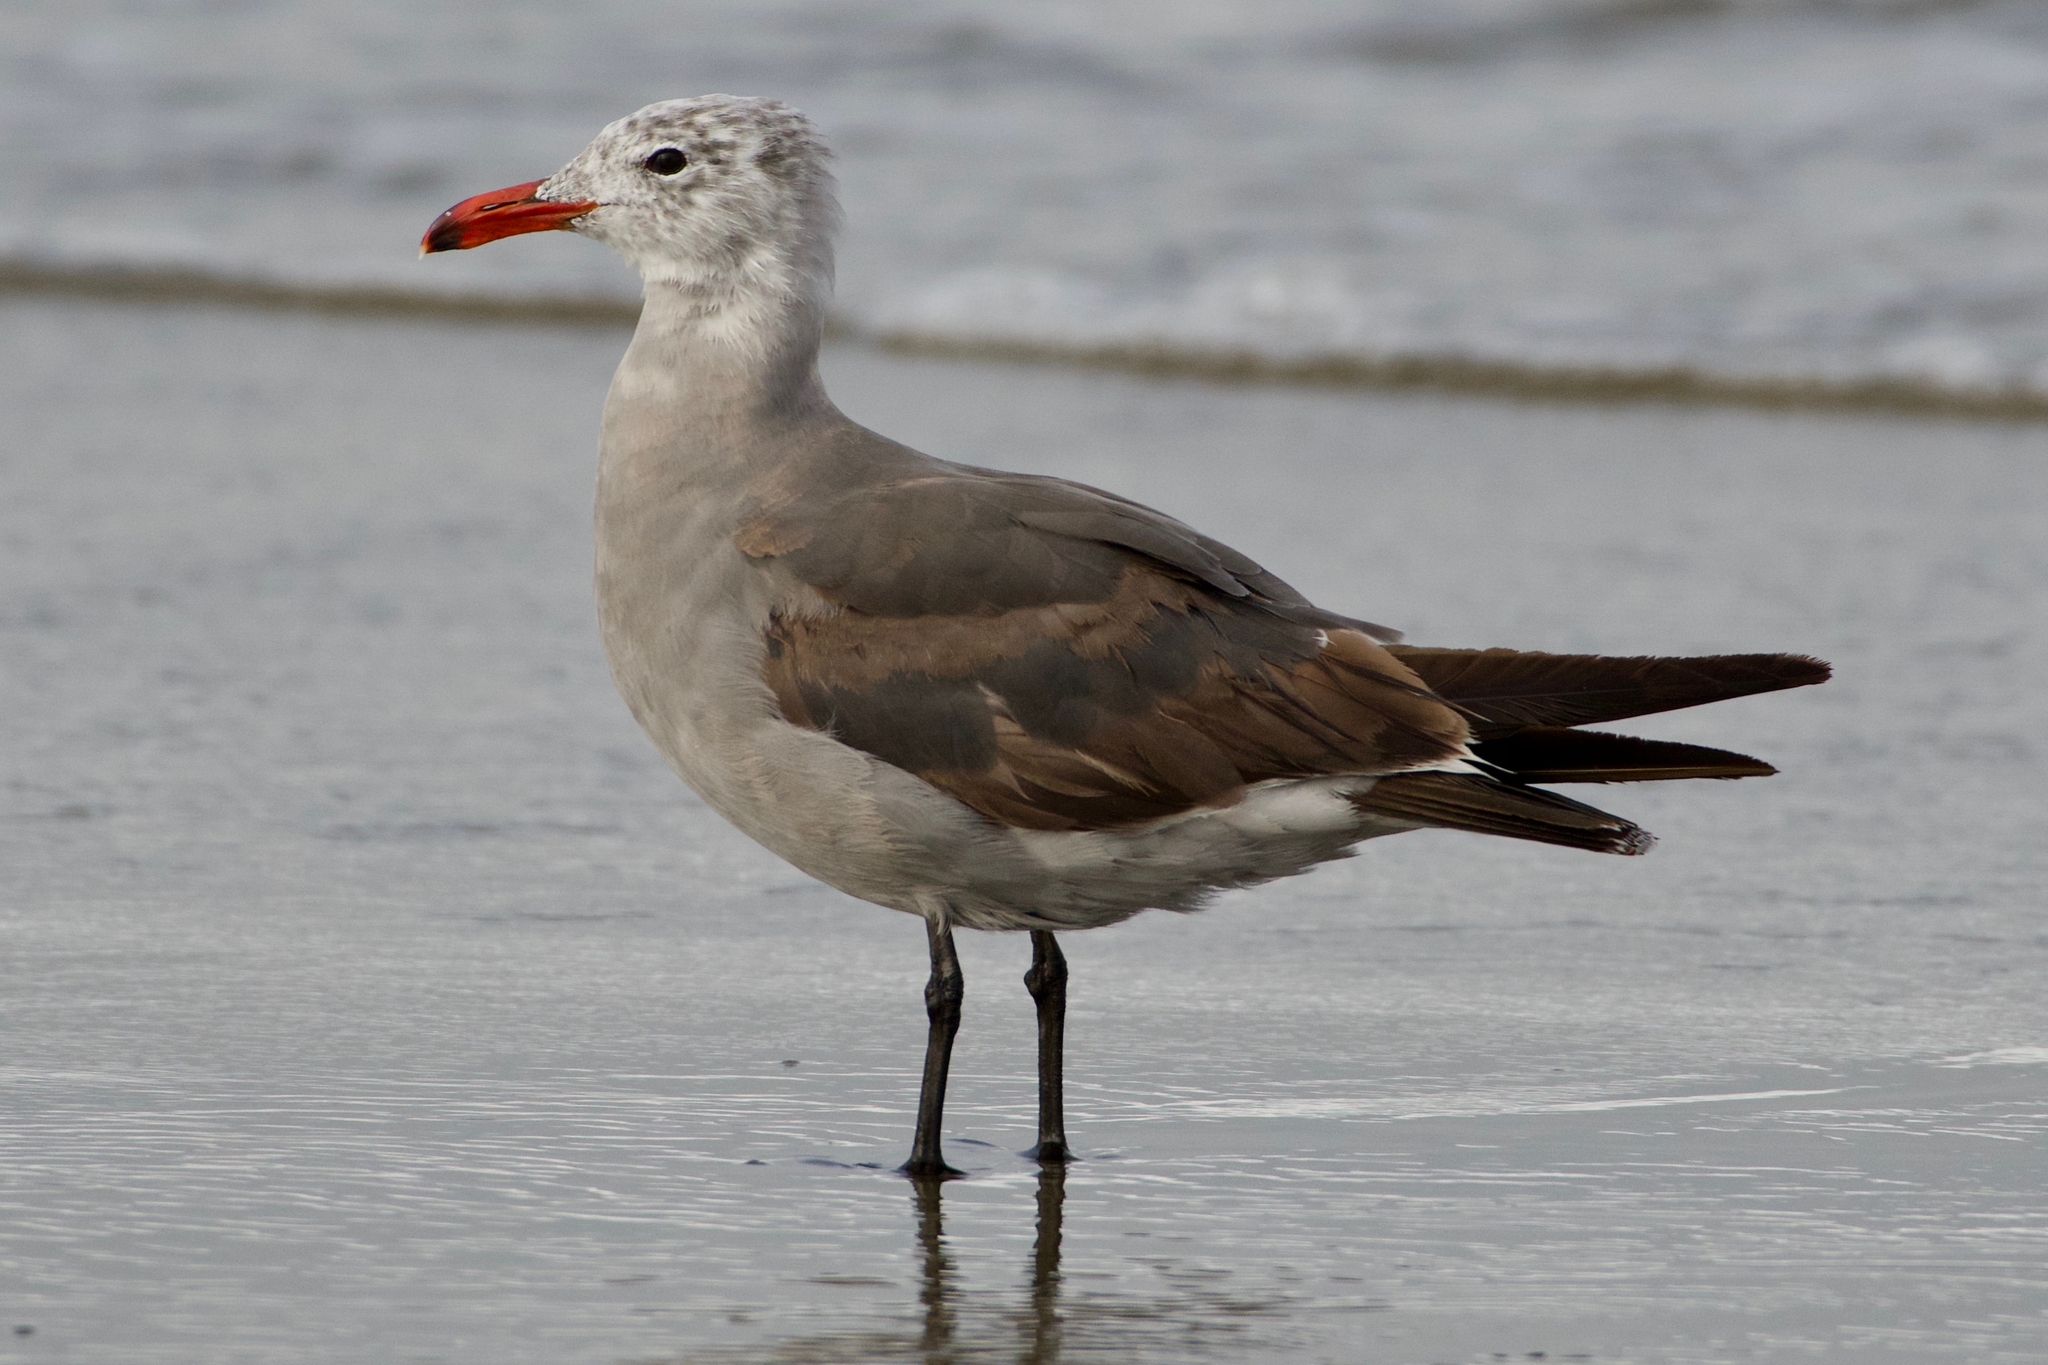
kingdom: Animalia
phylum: Chordata
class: Aves
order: Charadriiformes
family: Laridae
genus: Larus
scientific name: Larus heermanni
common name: Heermann's gull
